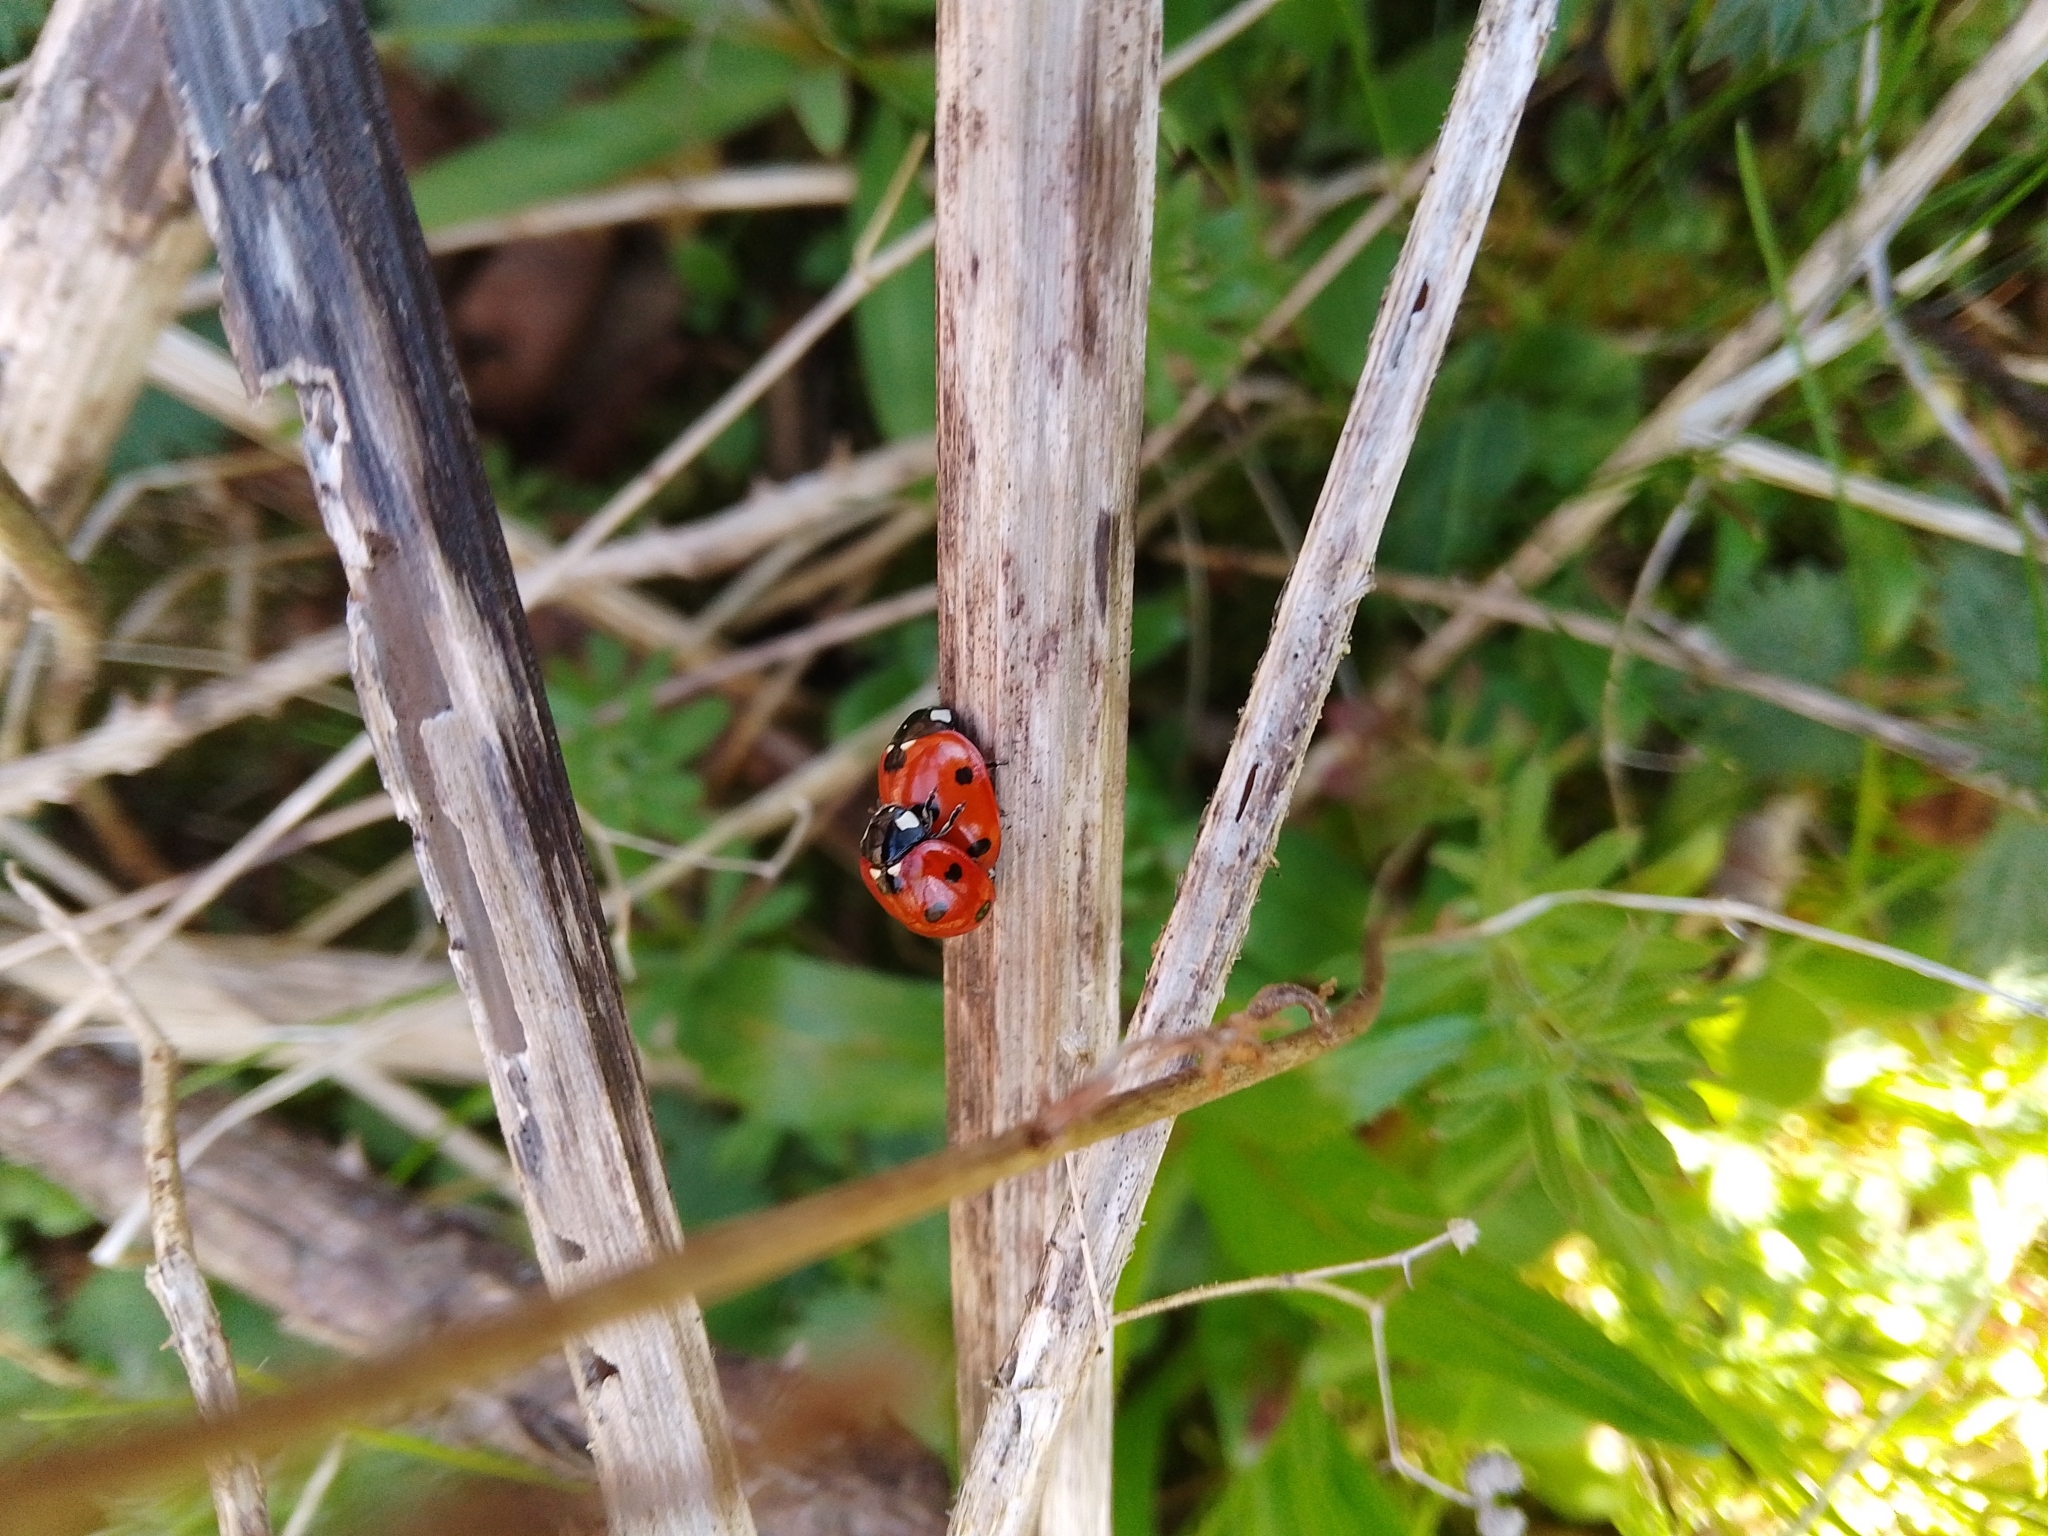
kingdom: Animalia
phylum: Arthropoda
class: Insecta
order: Coleoptera
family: Coccinellidae
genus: Coccinella
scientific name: Coccinella septempunctata
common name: Sevenspotted lady beetle
